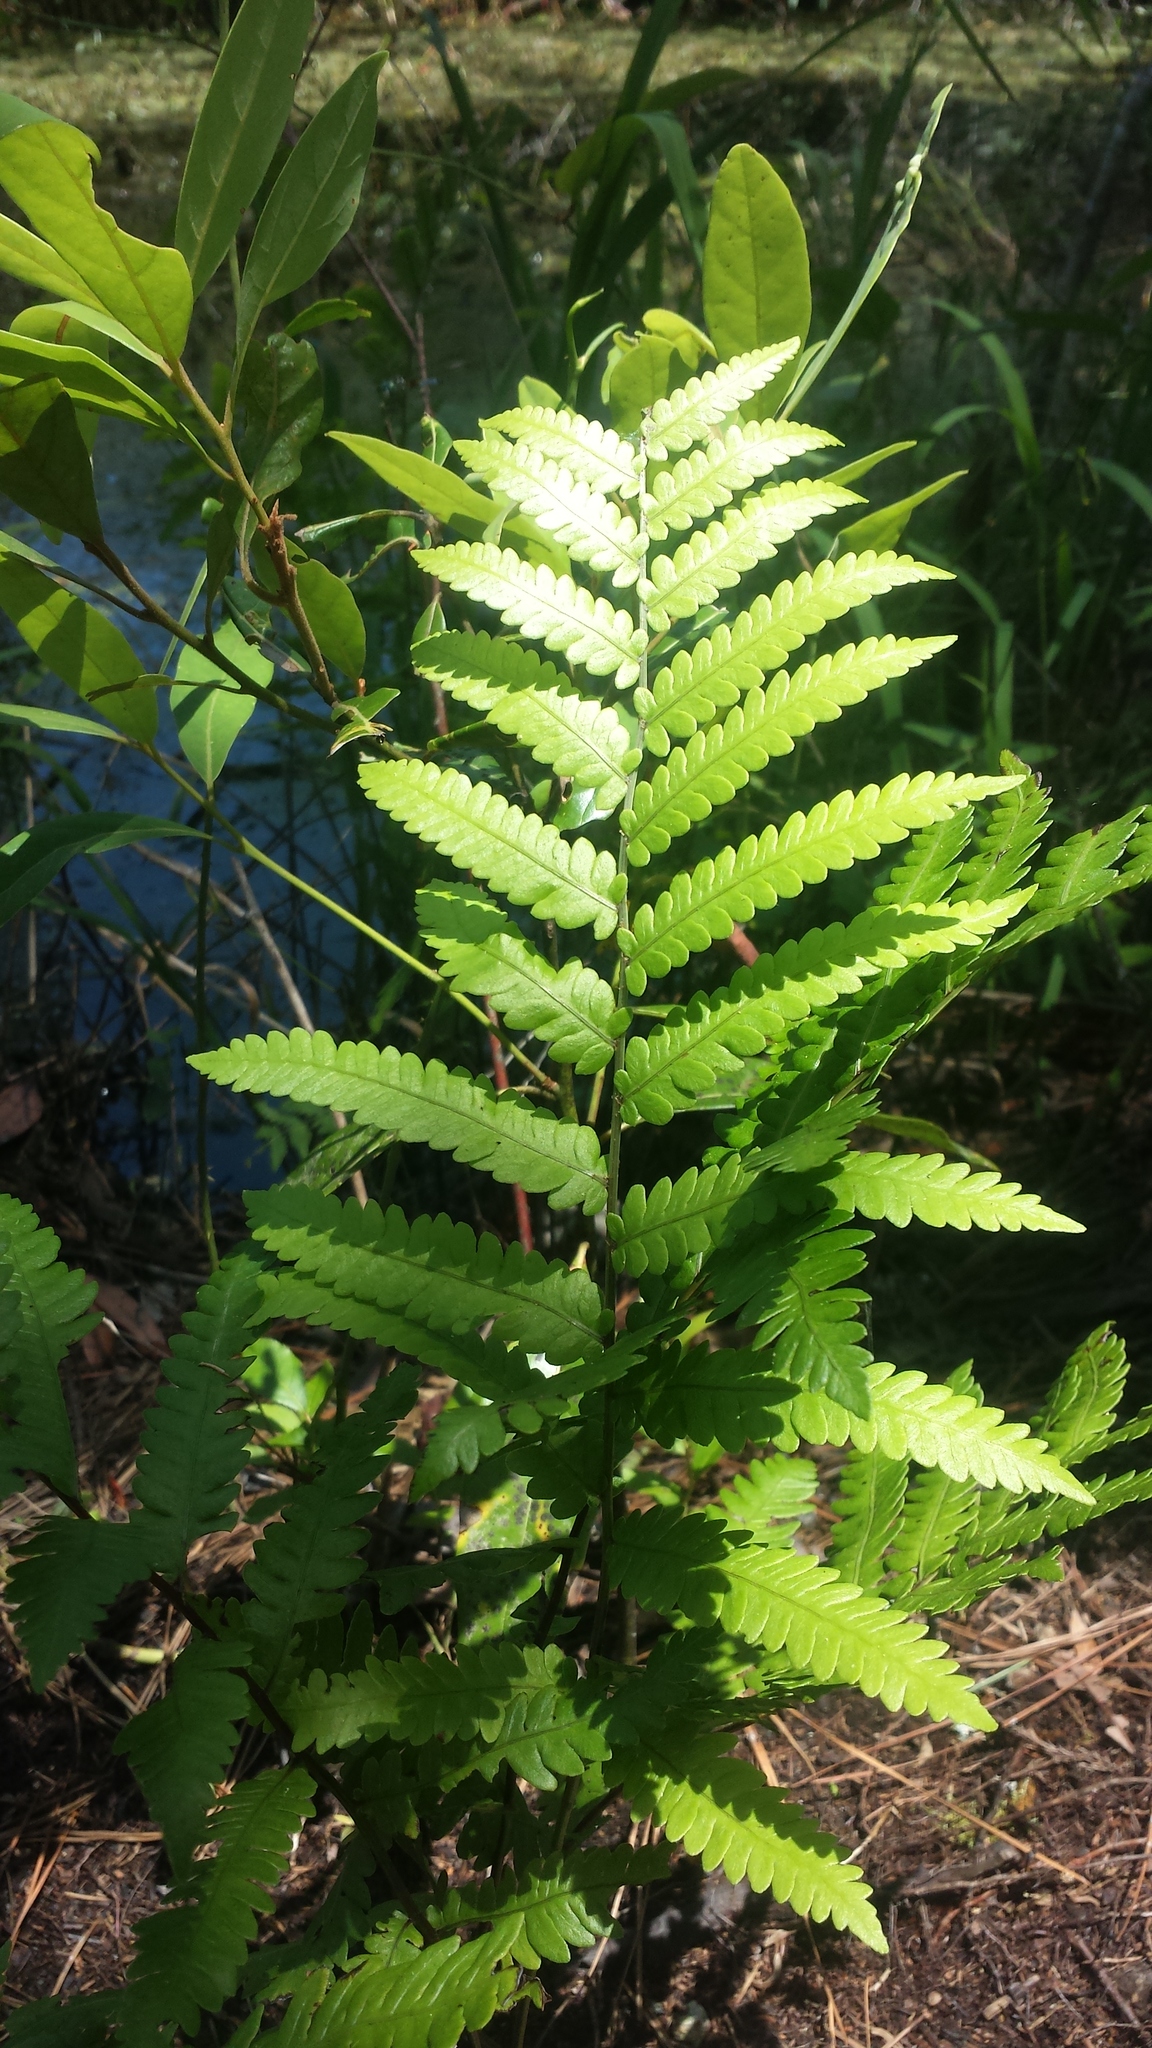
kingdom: Plantae
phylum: Tracheophyta
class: Polypodiopsida
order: Polypodiales
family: Blechnaceae
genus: Anchistea
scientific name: Anchistea virginica
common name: Virginia chain fern
